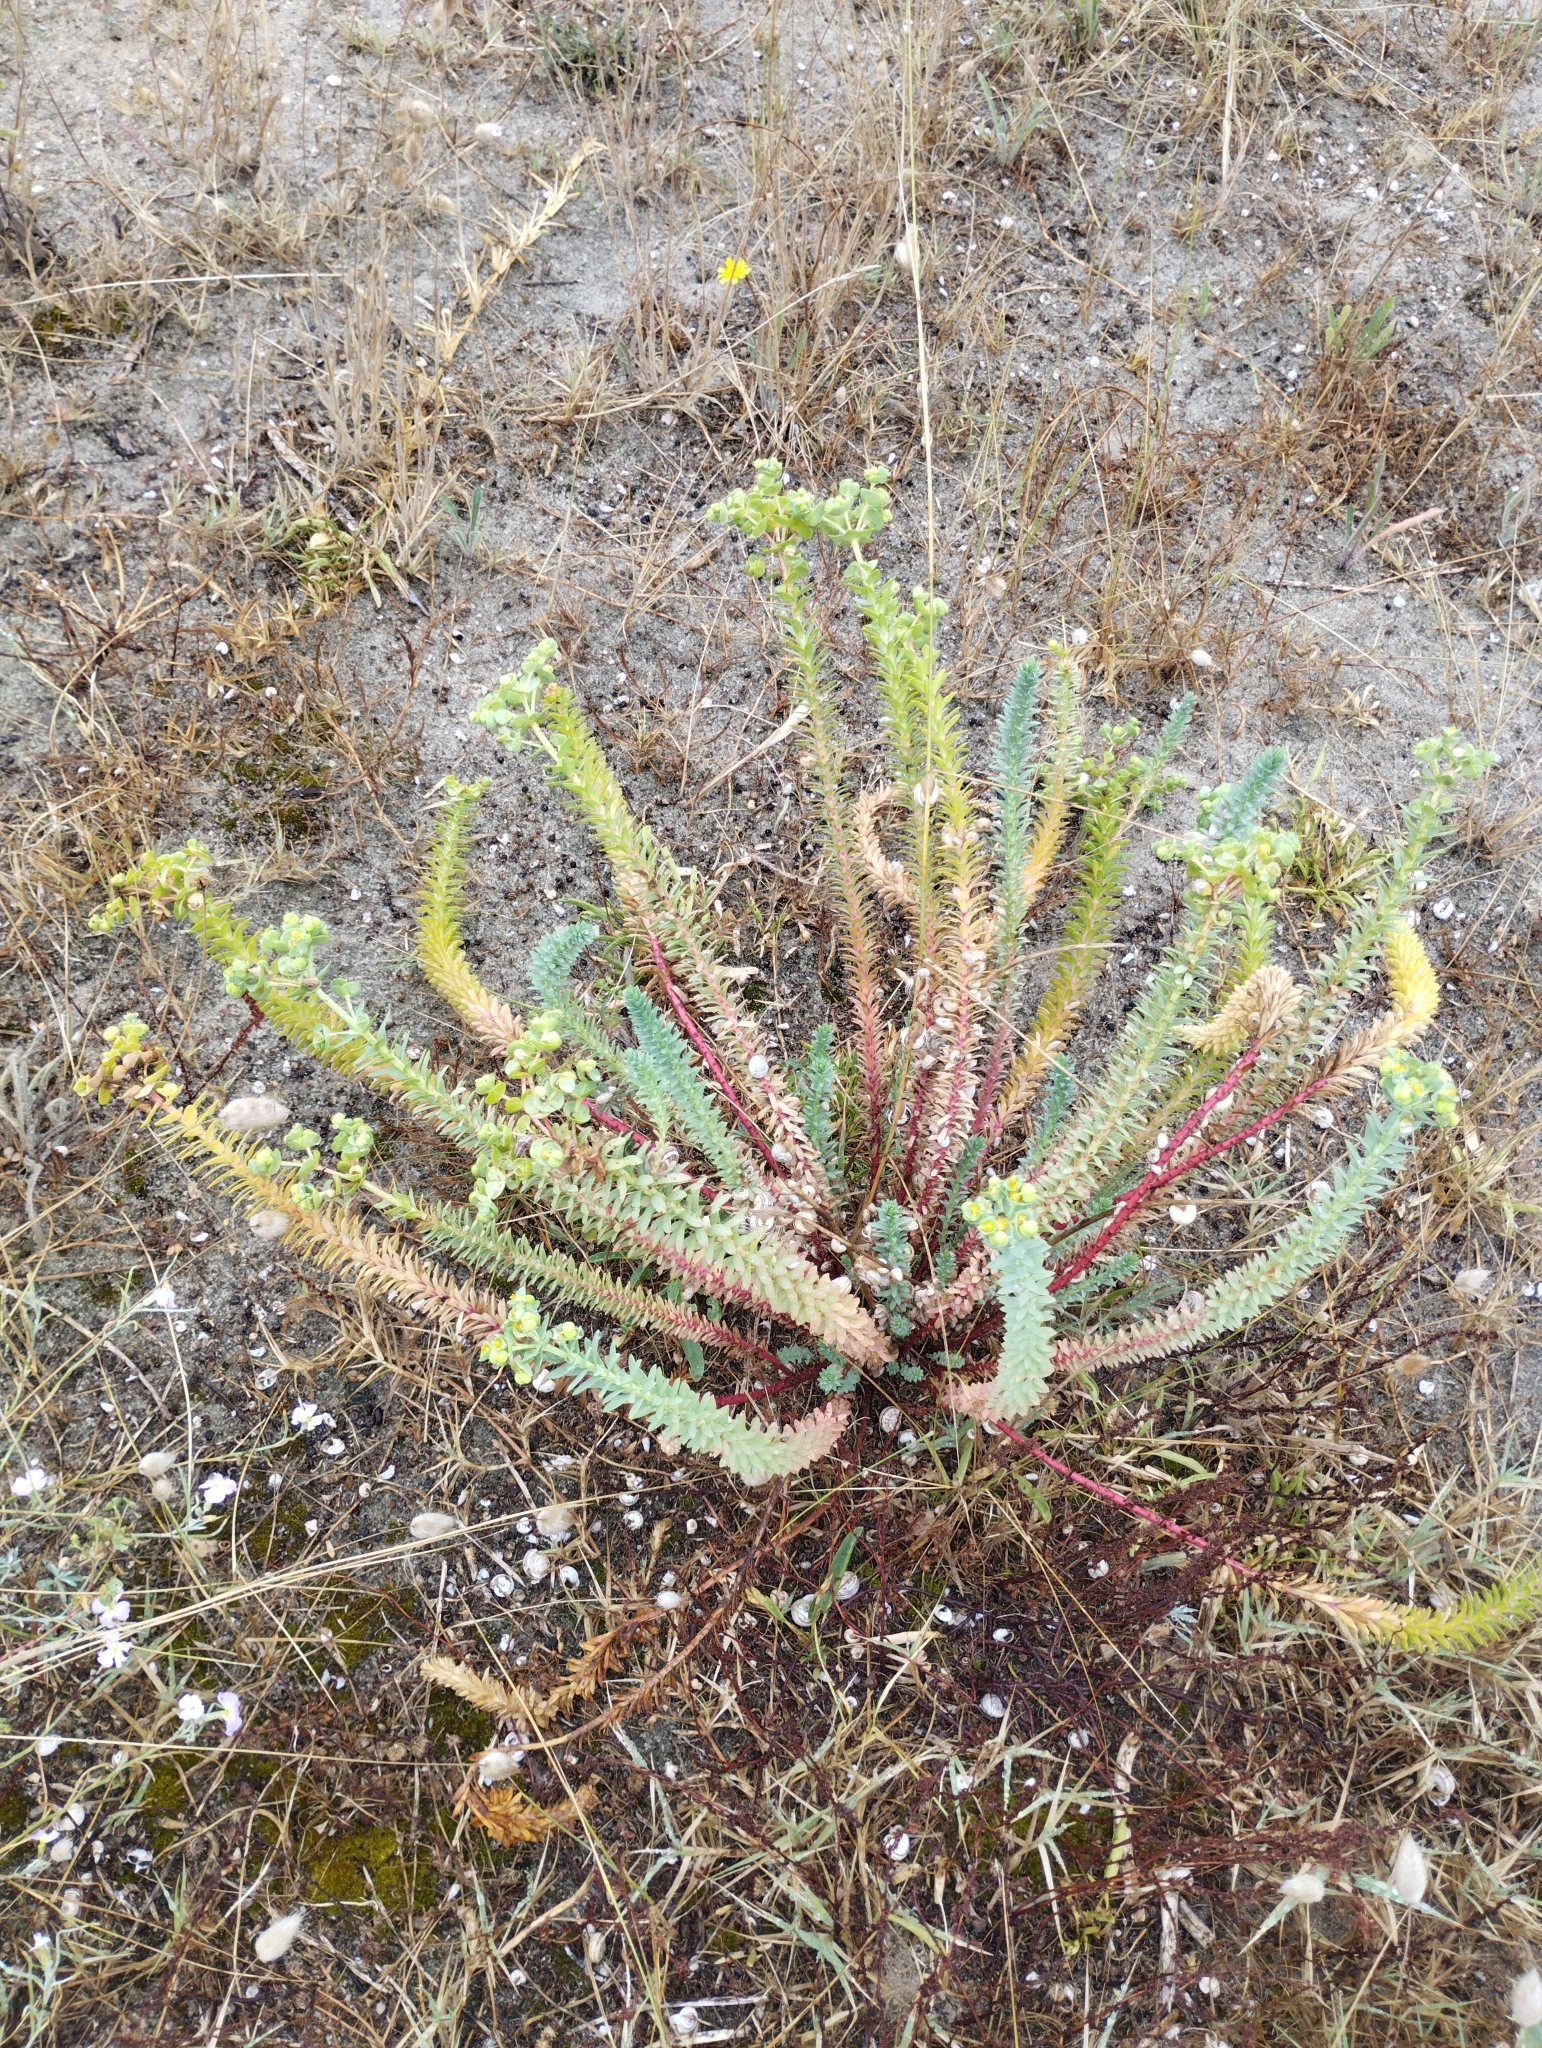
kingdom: Plantae
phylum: Tracheophyta
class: Magnoliopsida
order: Malpighiales
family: Euphorbiaceae
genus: Euphorbia
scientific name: Euphorbia paralias
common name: Sea spurge
